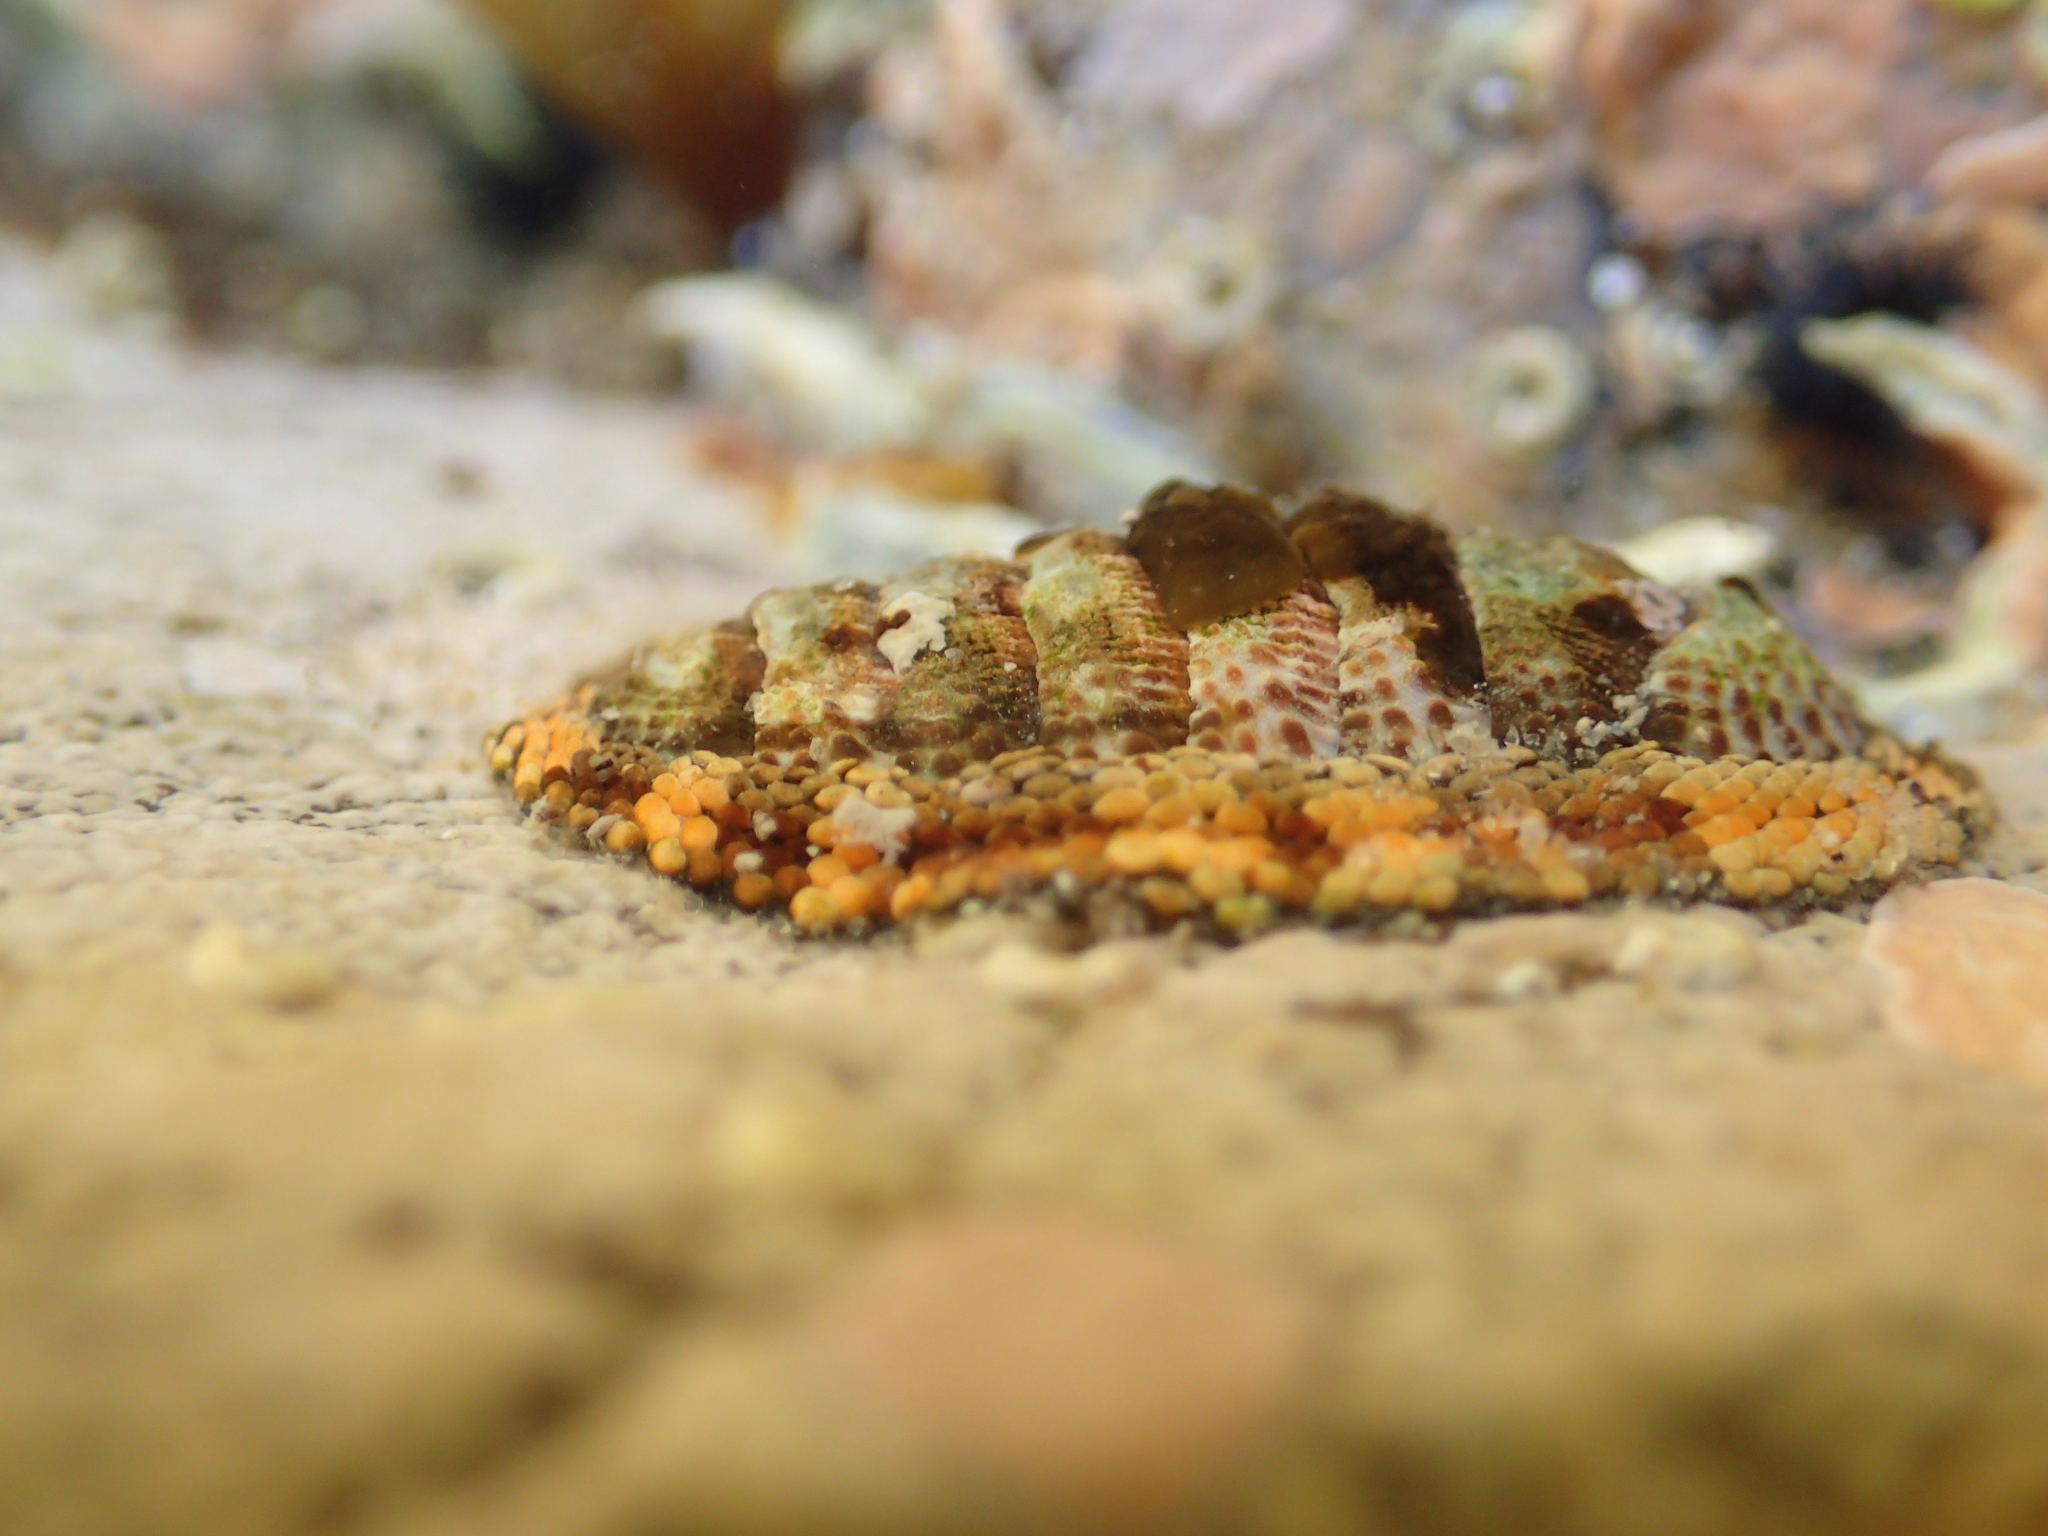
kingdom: Animalia
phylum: Mollusca
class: Polyplacophora
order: Chitonida
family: Chitonidae
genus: Sypharochiton
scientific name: Sypharochiton pelliserpentis
